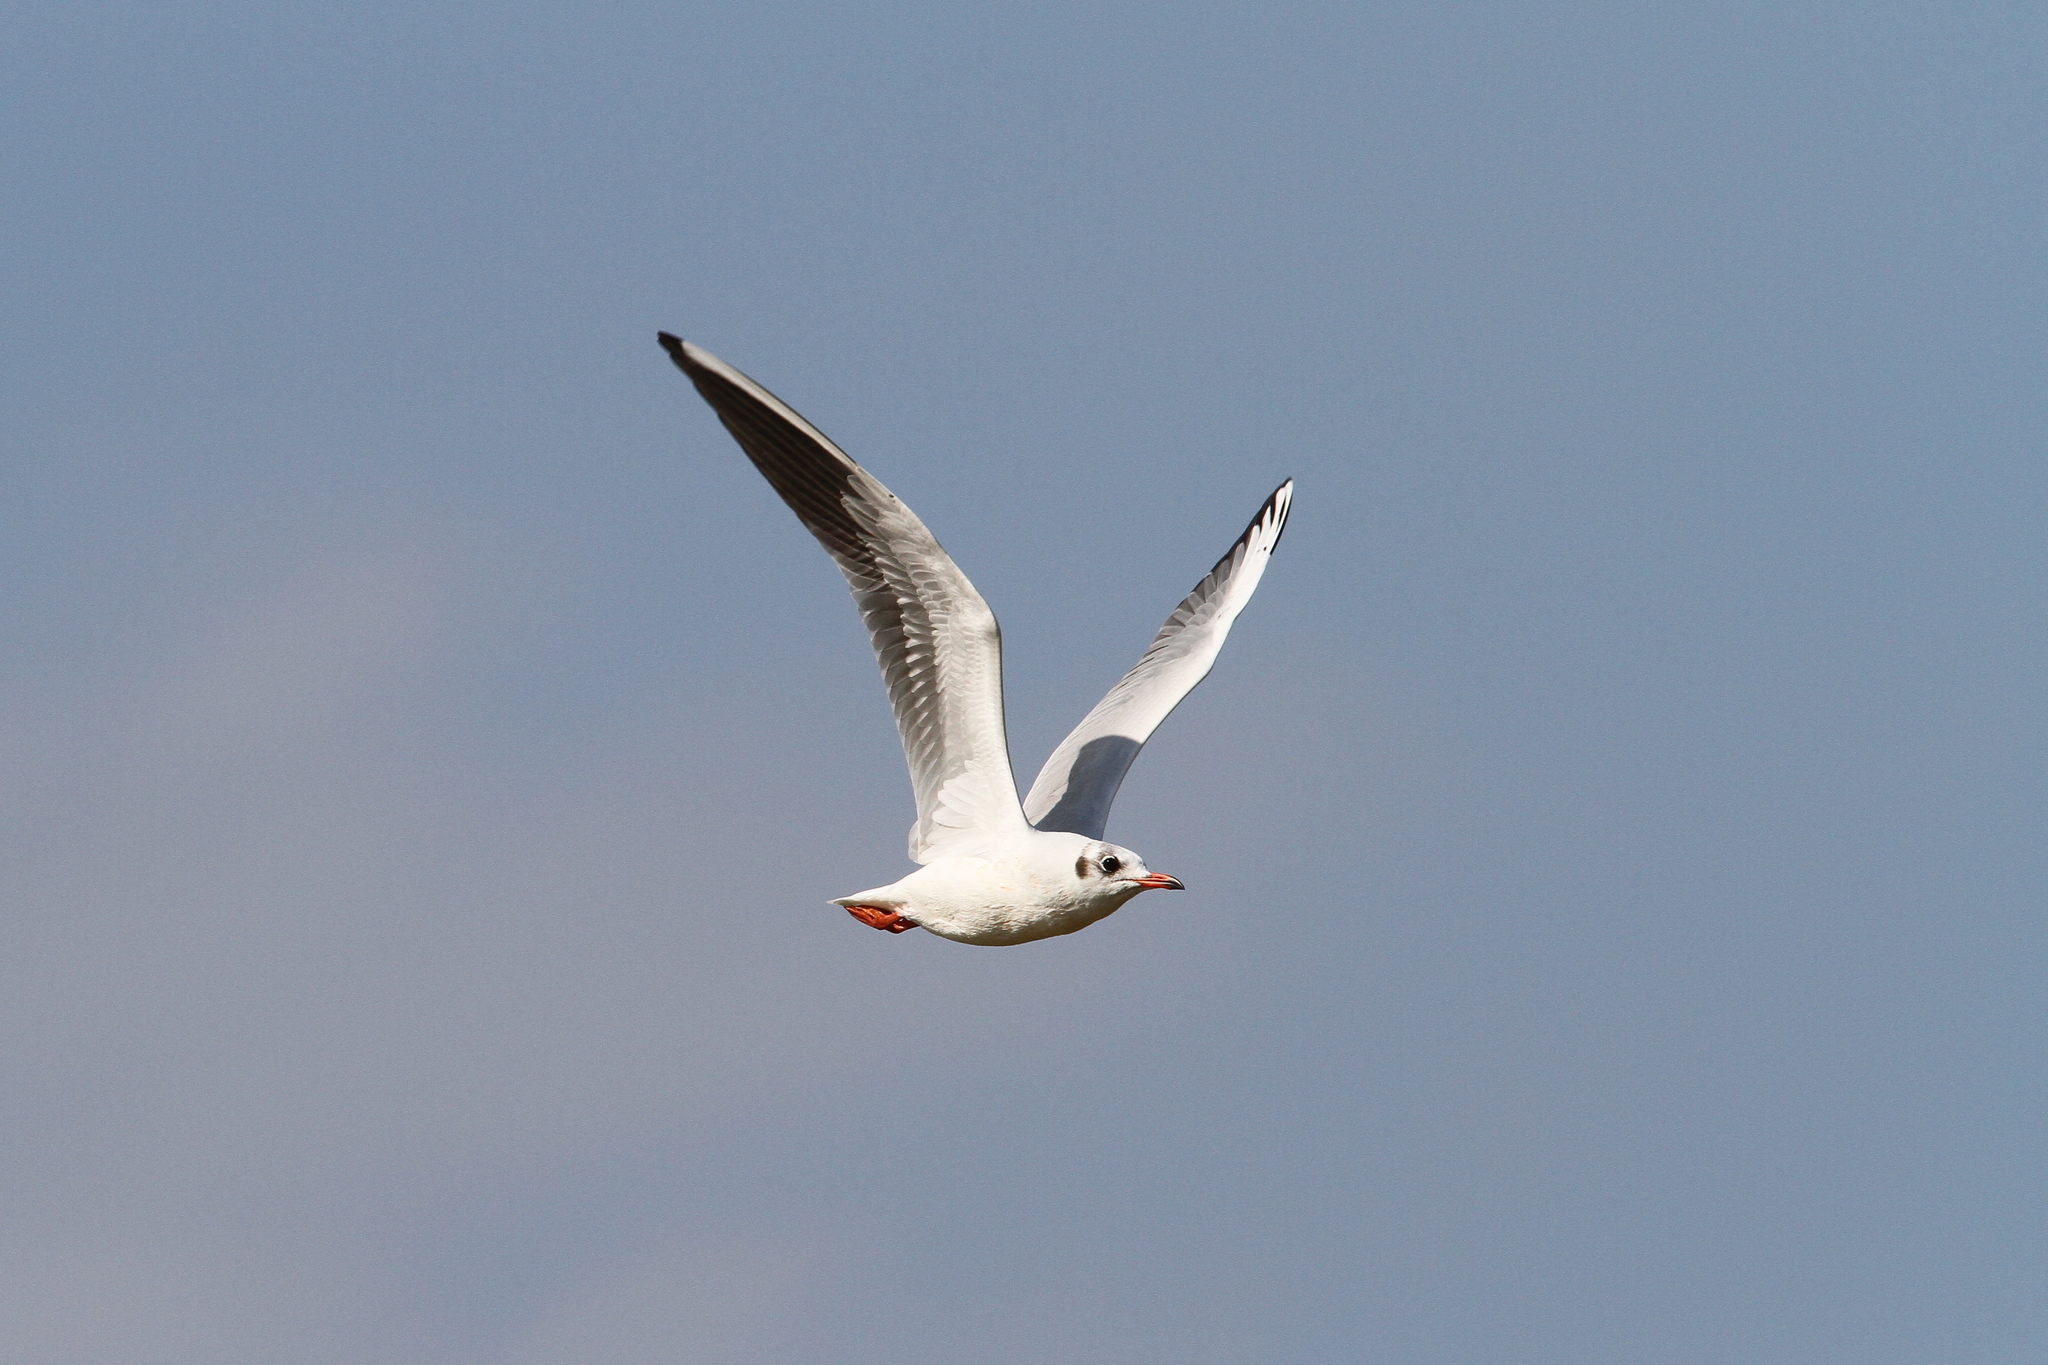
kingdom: Animalia
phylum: Chordata
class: Aves
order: Charadriiformes
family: Laridae
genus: Chroicocephalus
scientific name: Chroicocephalus ridibundus
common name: Black-headed gull
